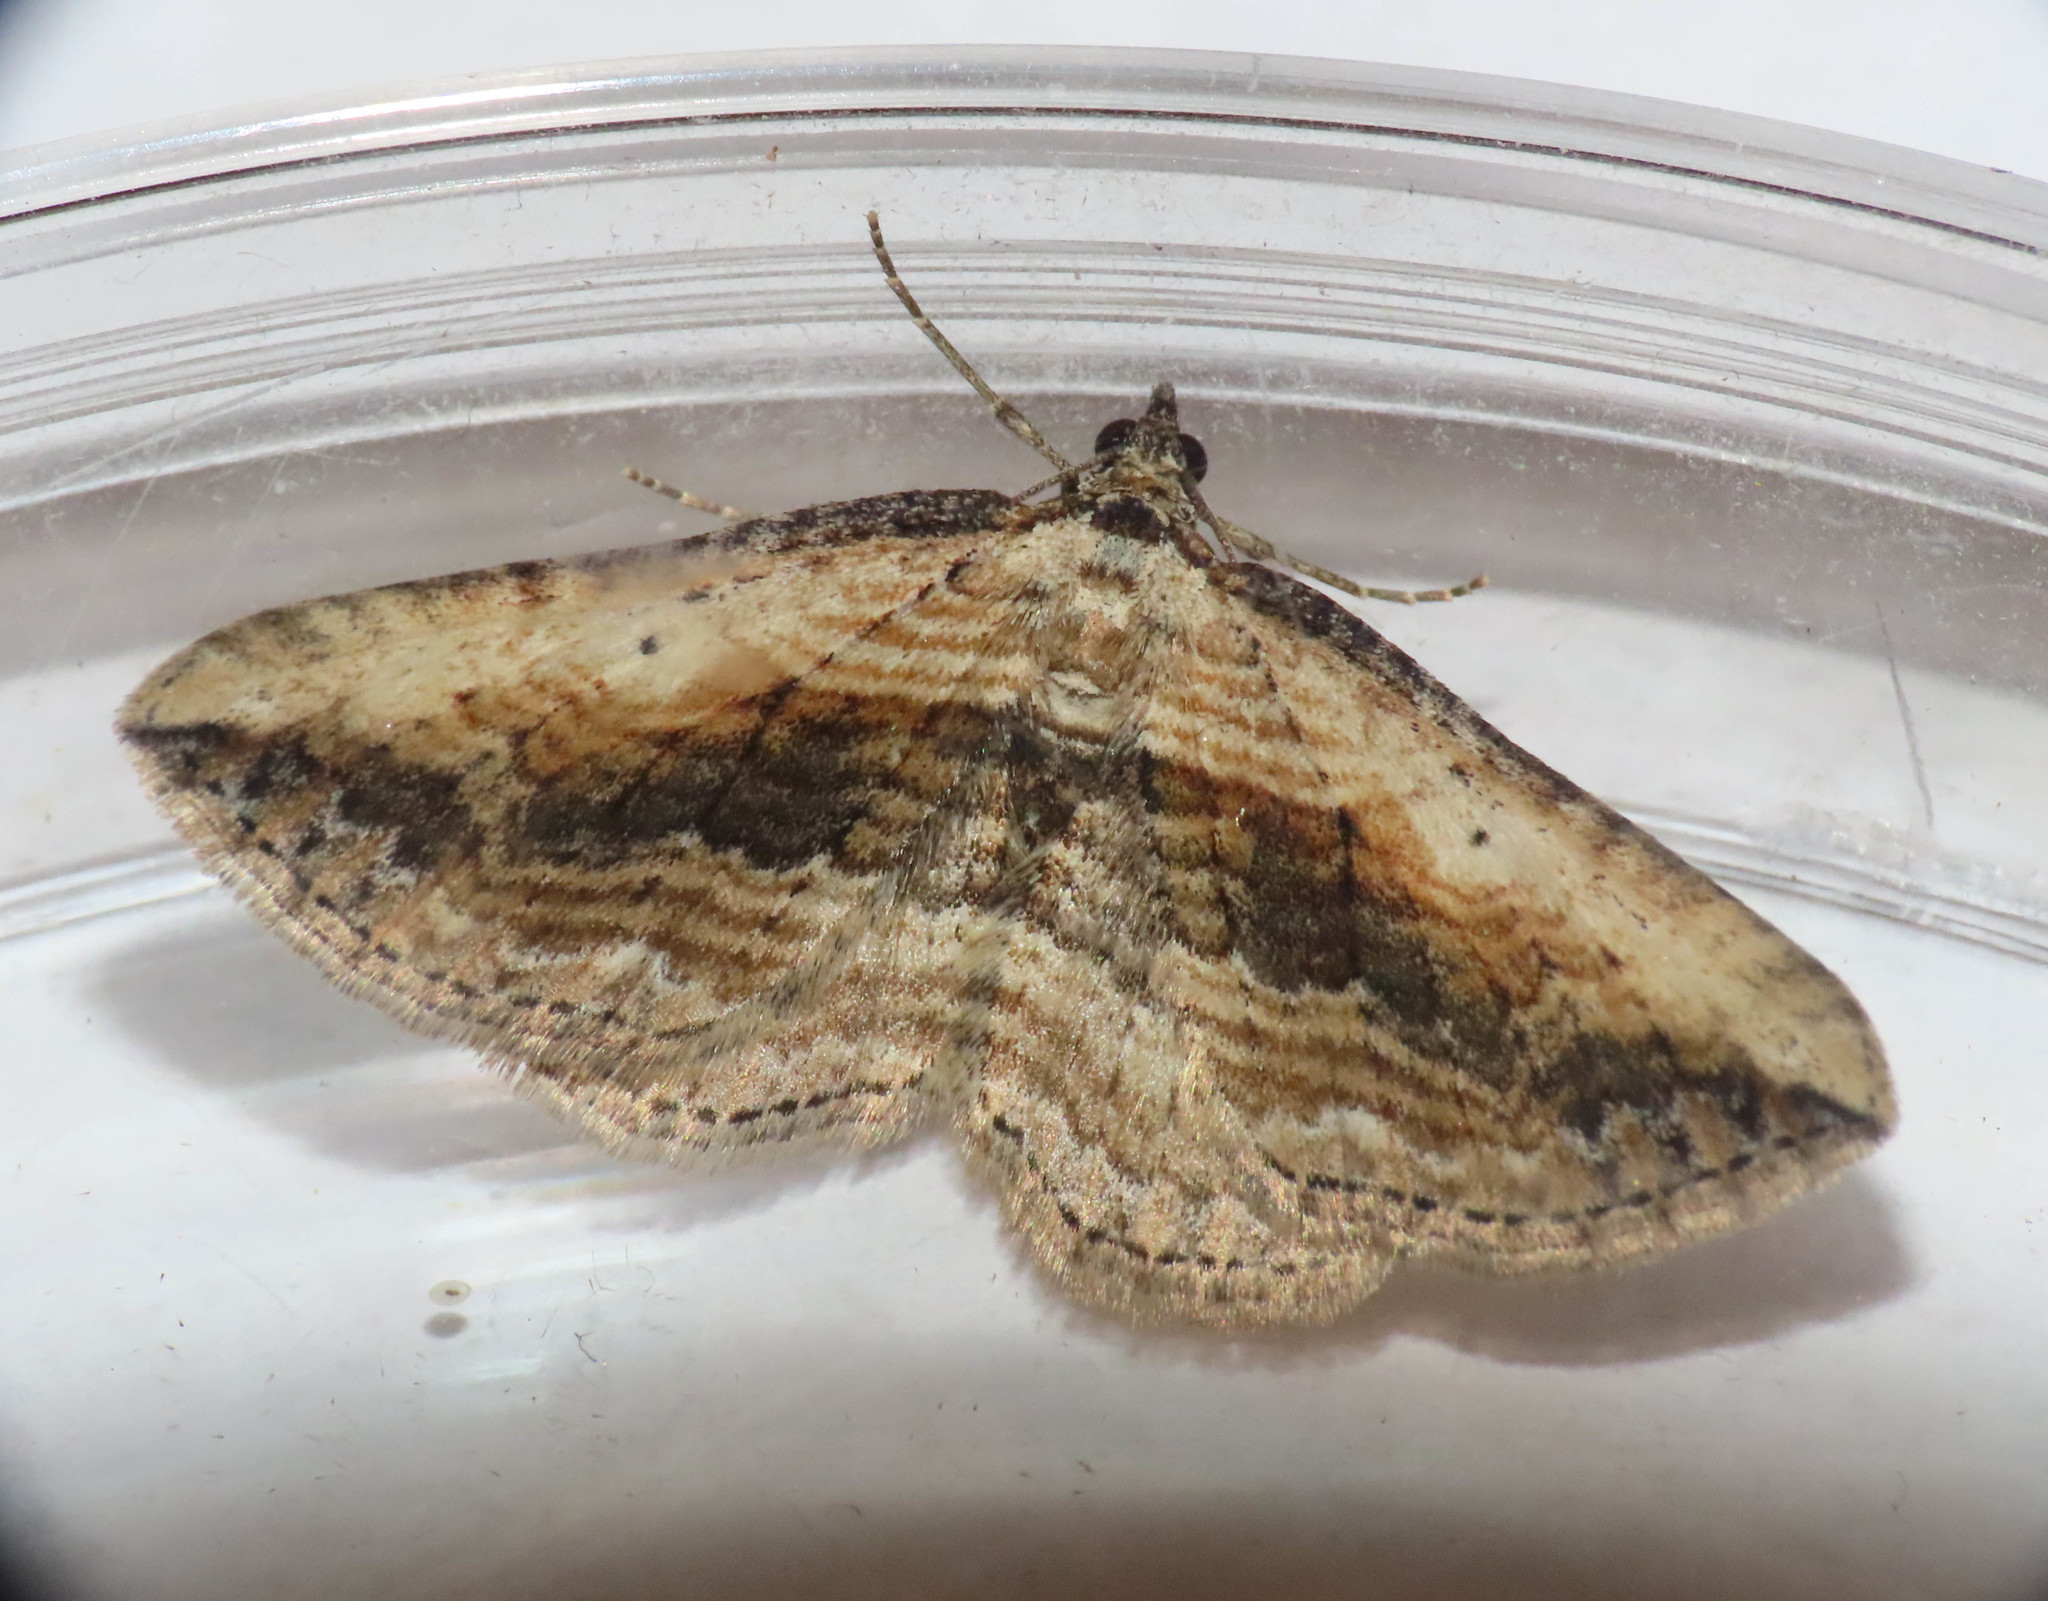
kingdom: Animalia
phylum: Arthropoda
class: Insecta
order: Lepidoptera
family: Geometridae
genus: Horisme
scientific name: Horisme vitalbata
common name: Small waved umber
